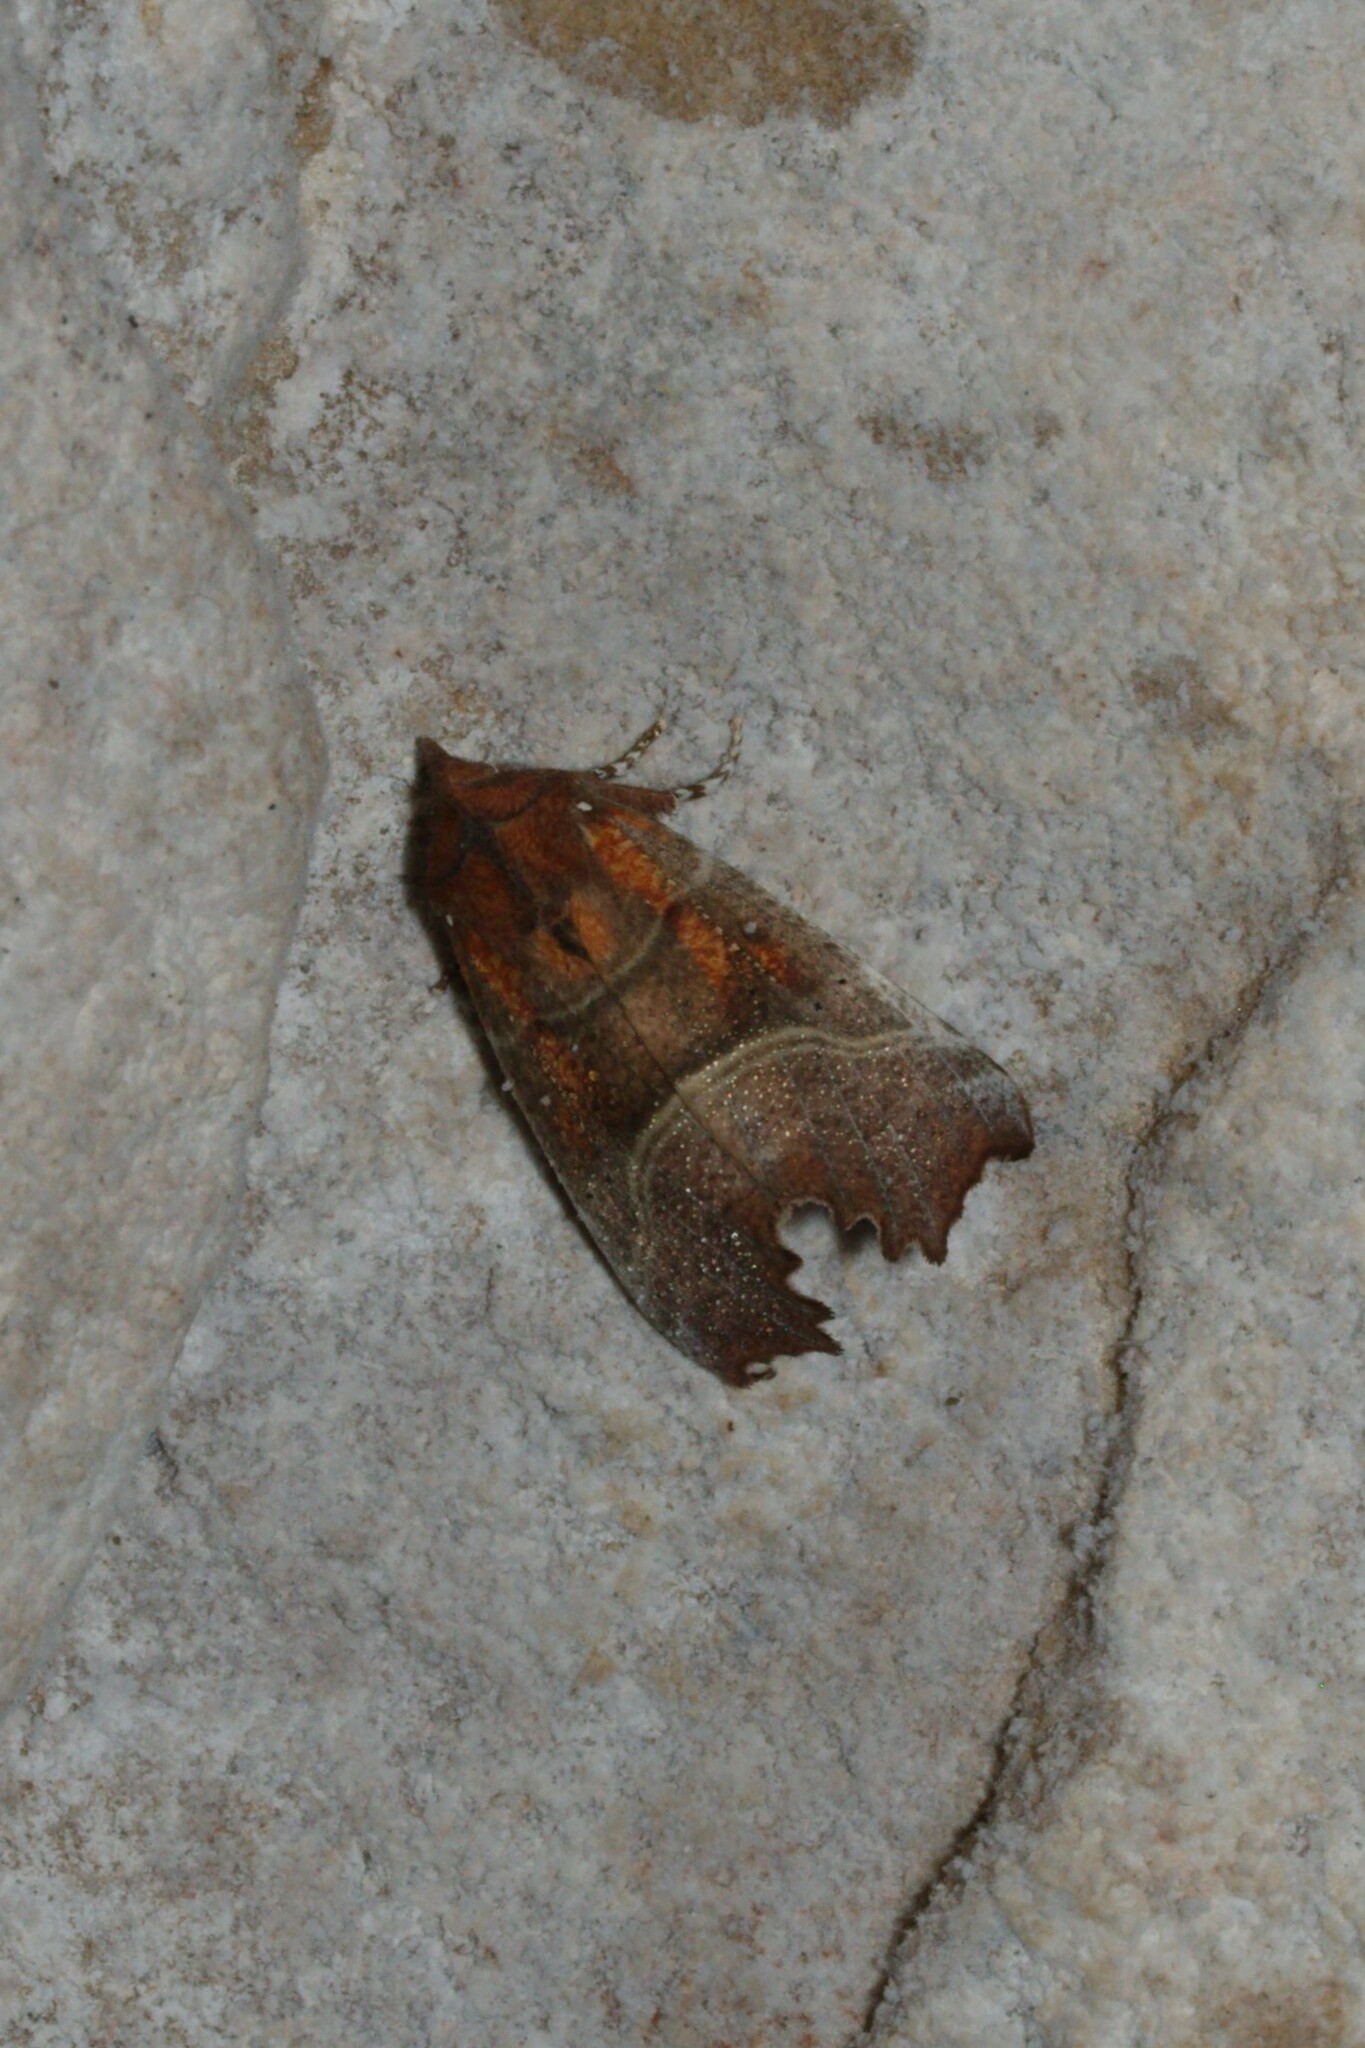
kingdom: Animalia
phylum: Arthropoda
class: Insecta
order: Lepidoptera
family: Erebidae
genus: Scoliopteryx
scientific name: Scoliopteryx libatrix
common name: Herald
